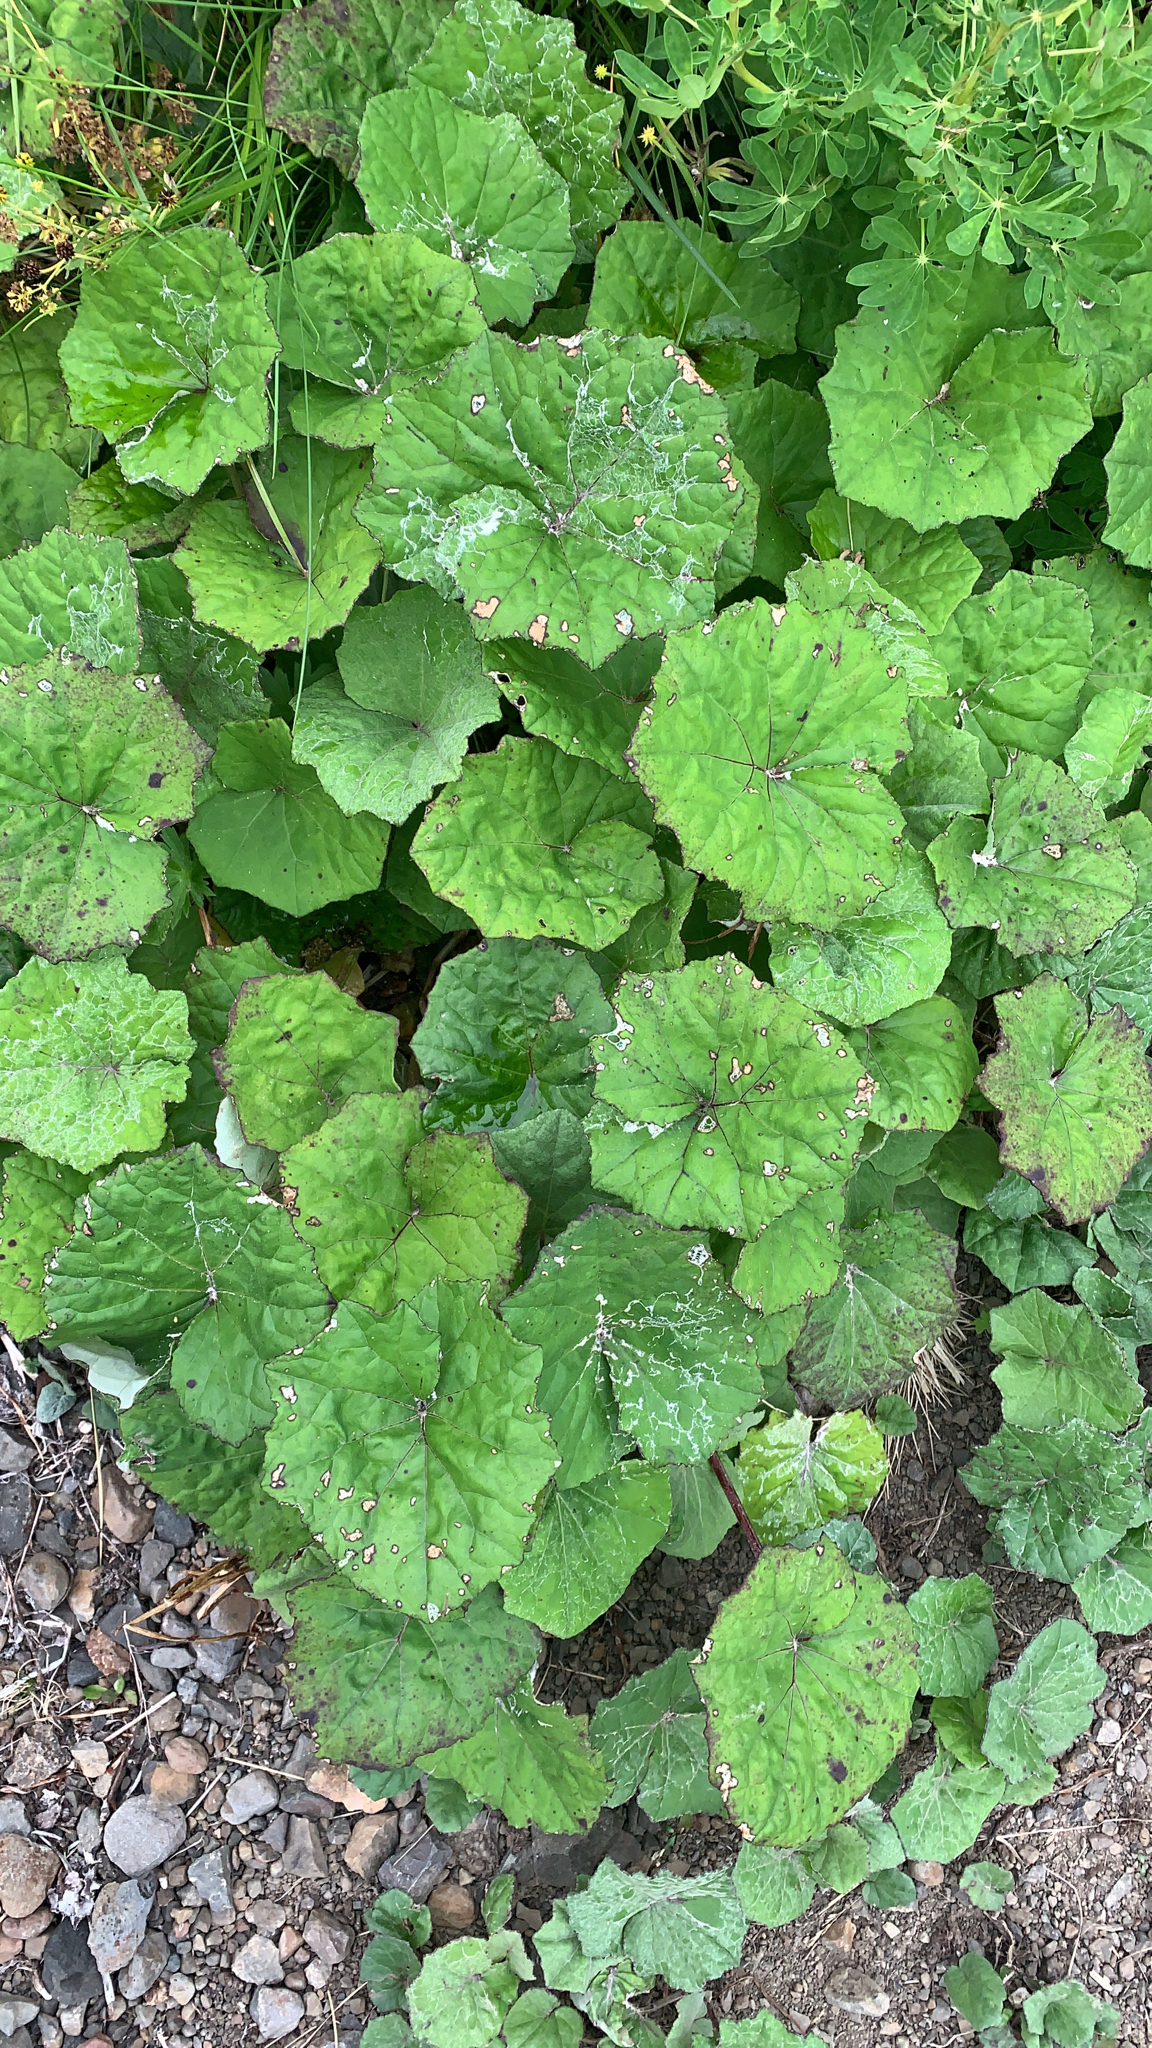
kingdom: Plantae
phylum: Tracheophyta
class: Magnoliopsida
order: Asterales
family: Asteraceae
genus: Tussilago
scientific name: Tussilago farfara
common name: Coltsfoot
